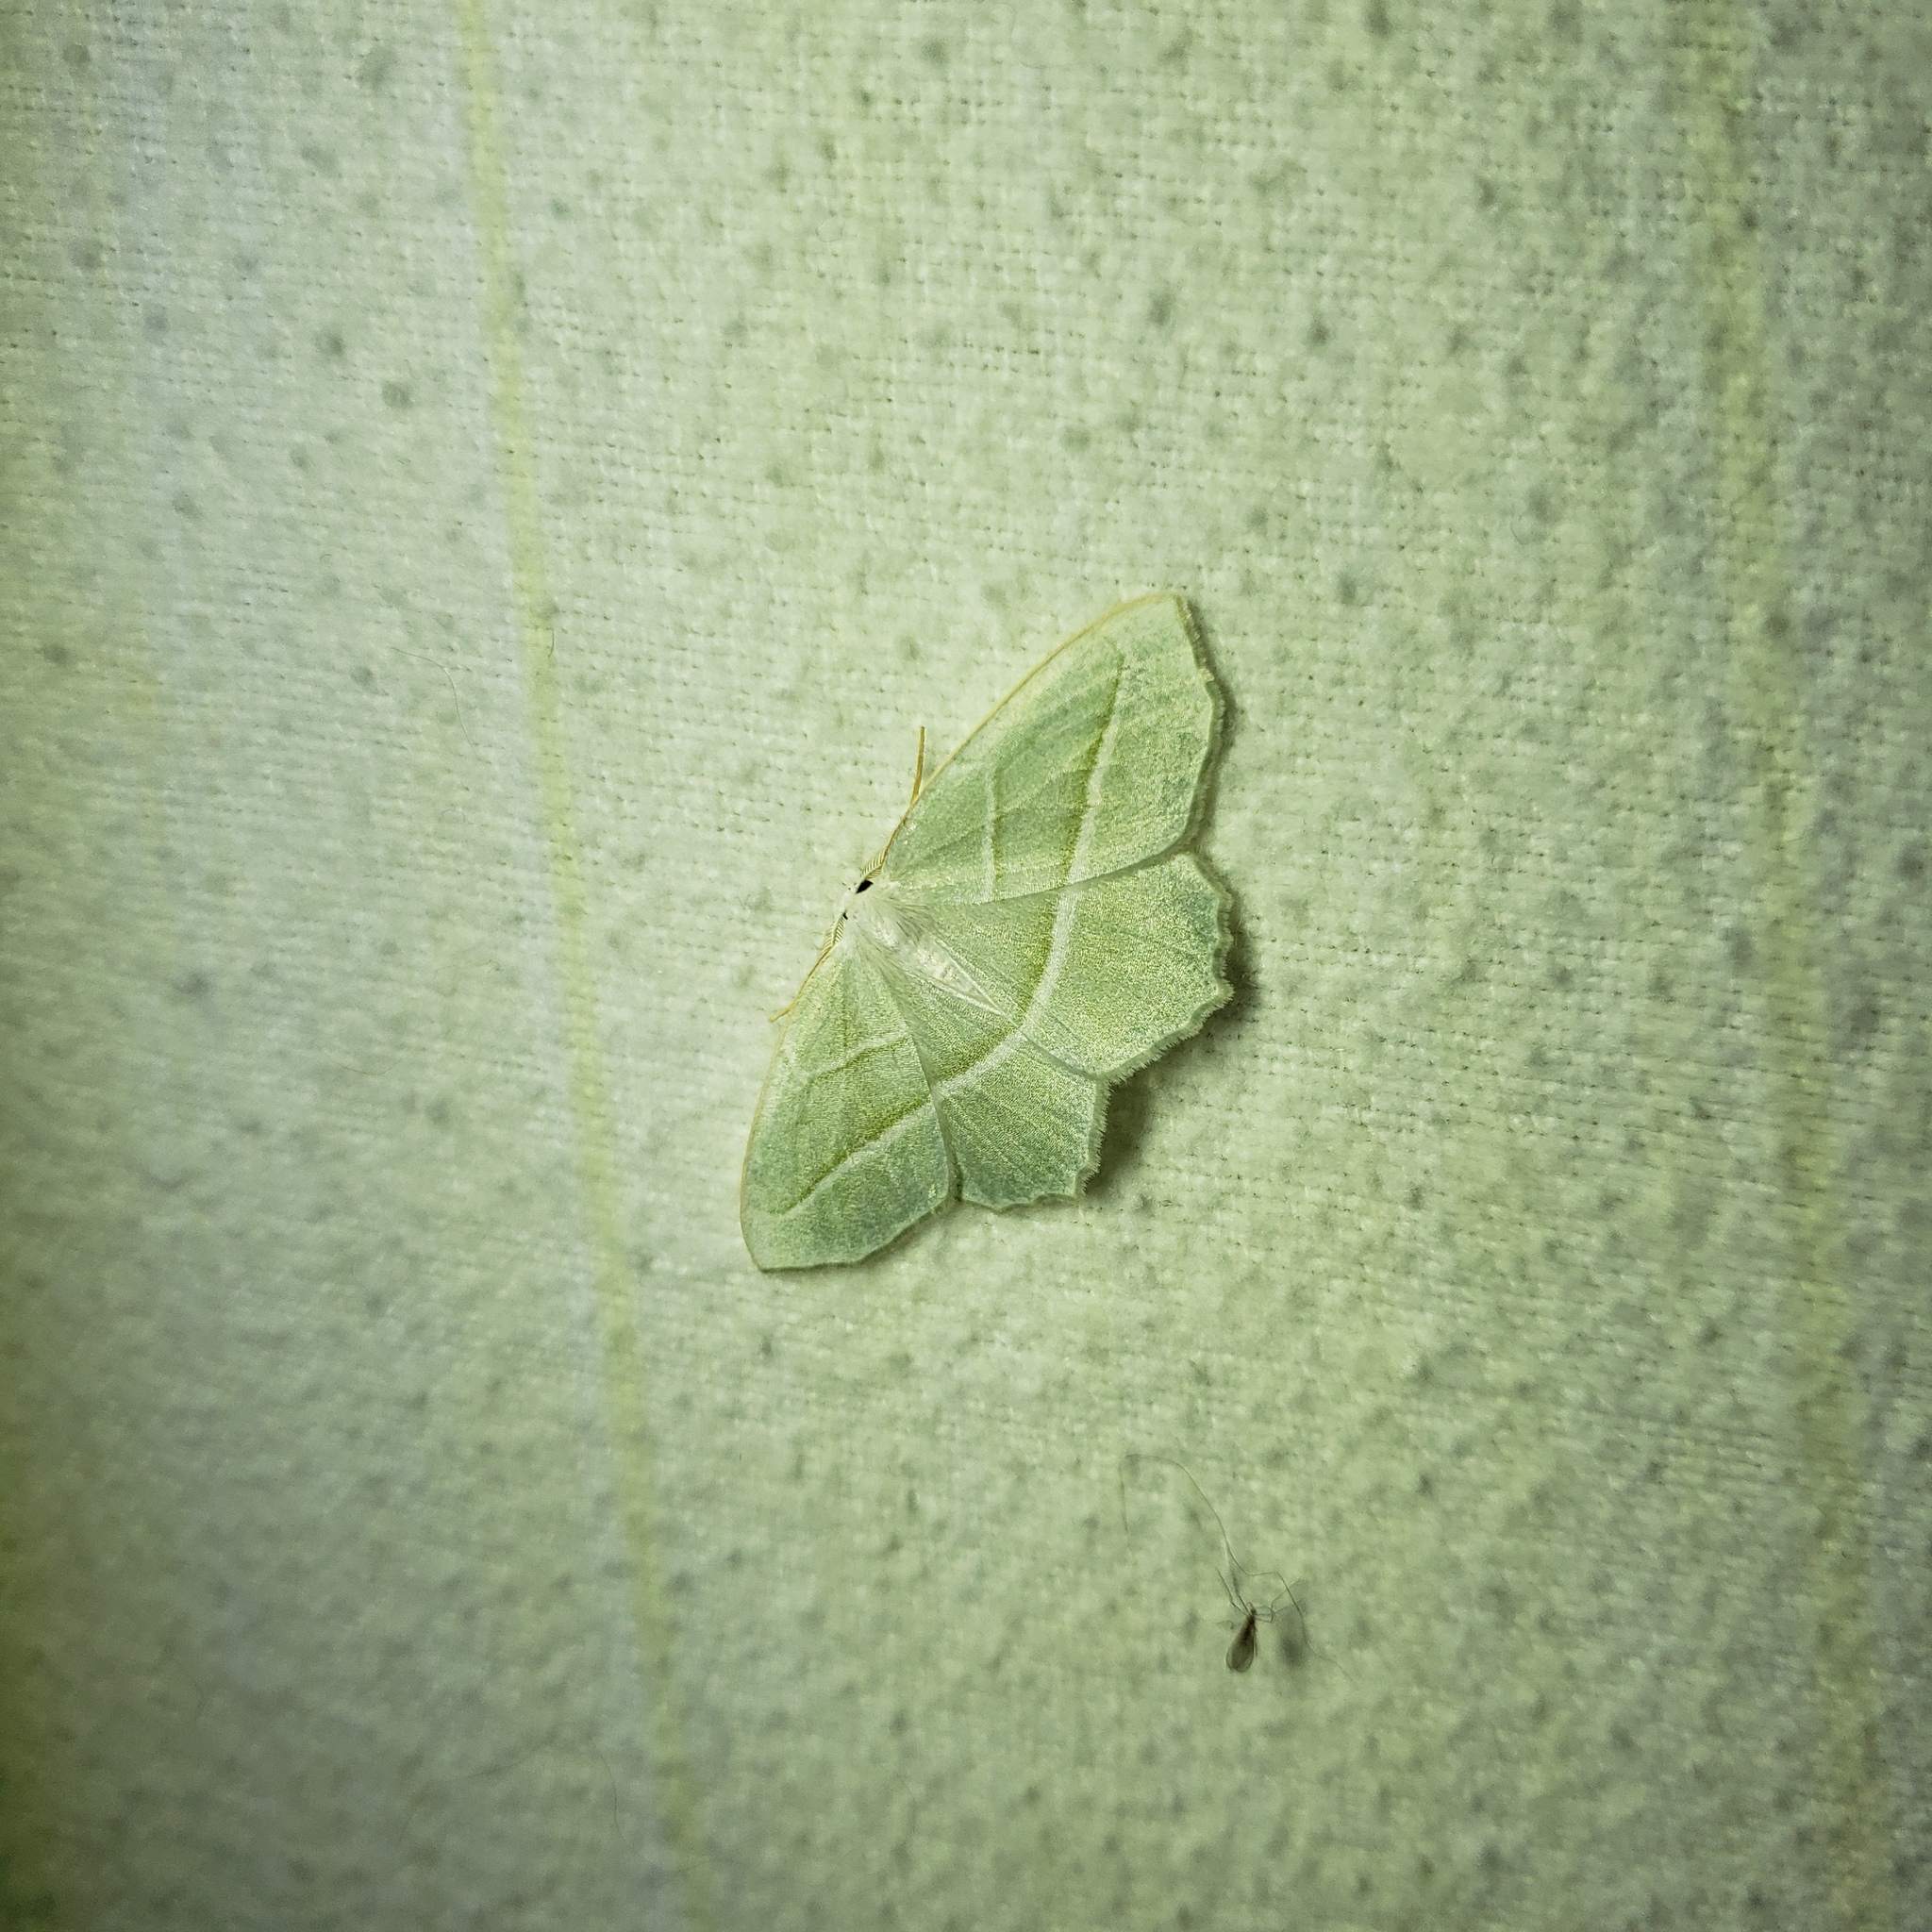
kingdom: Animalia
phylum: Arthropoda
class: Insecta
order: Lepidoptera
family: Geometridae
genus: Campaea
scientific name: Campaea perlata
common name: Fringed looper
